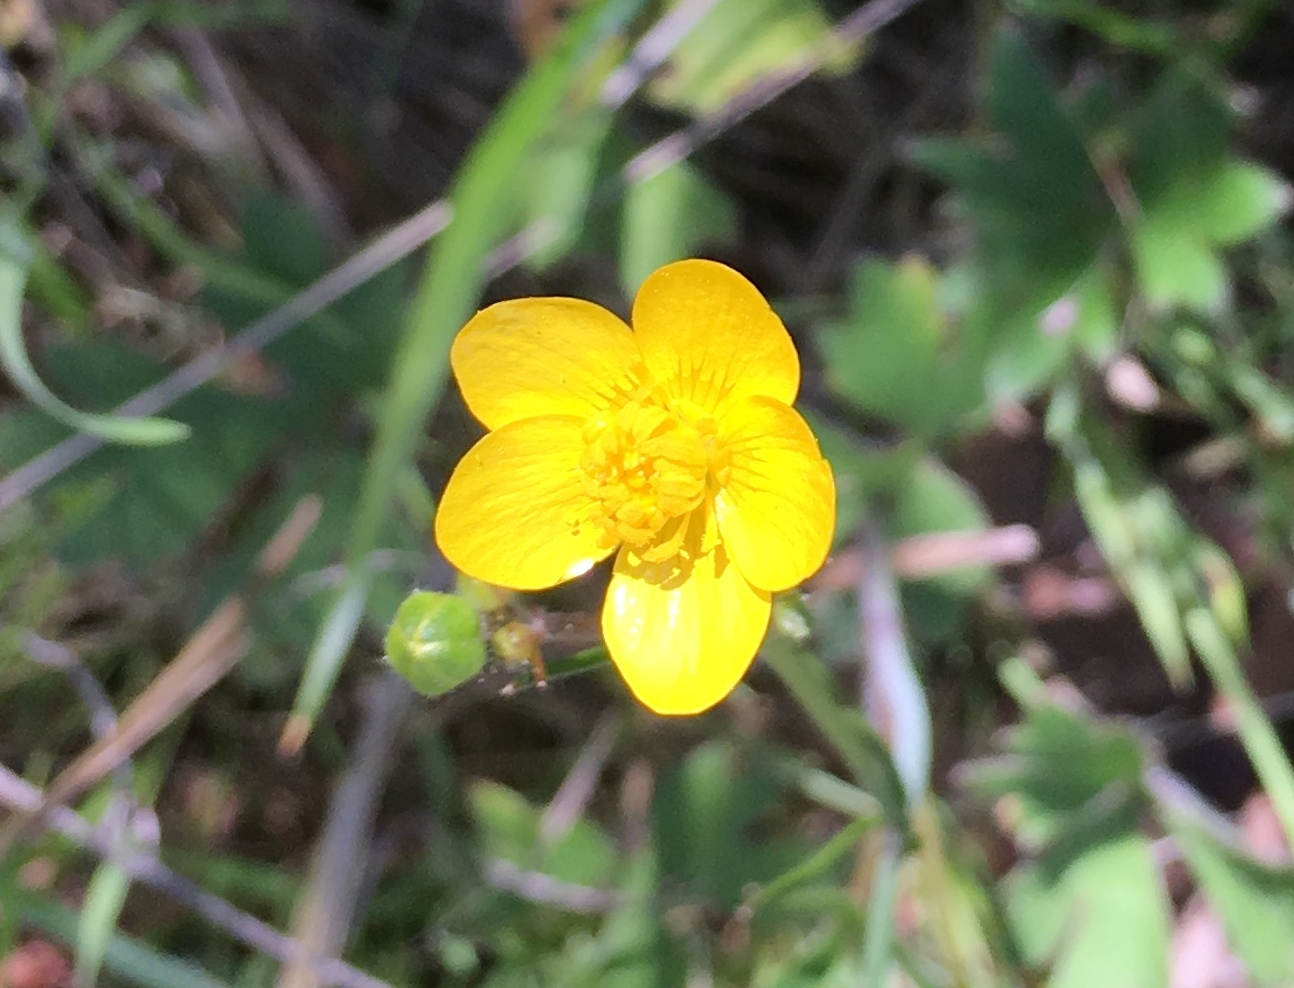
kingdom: Plantae
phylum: Tracheophyta
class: Magnoliopsida
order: Ranunculales
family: Ranunculaceae
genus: Ranunculus
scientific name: Ranunculus occidentalis
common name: Western buttercup
